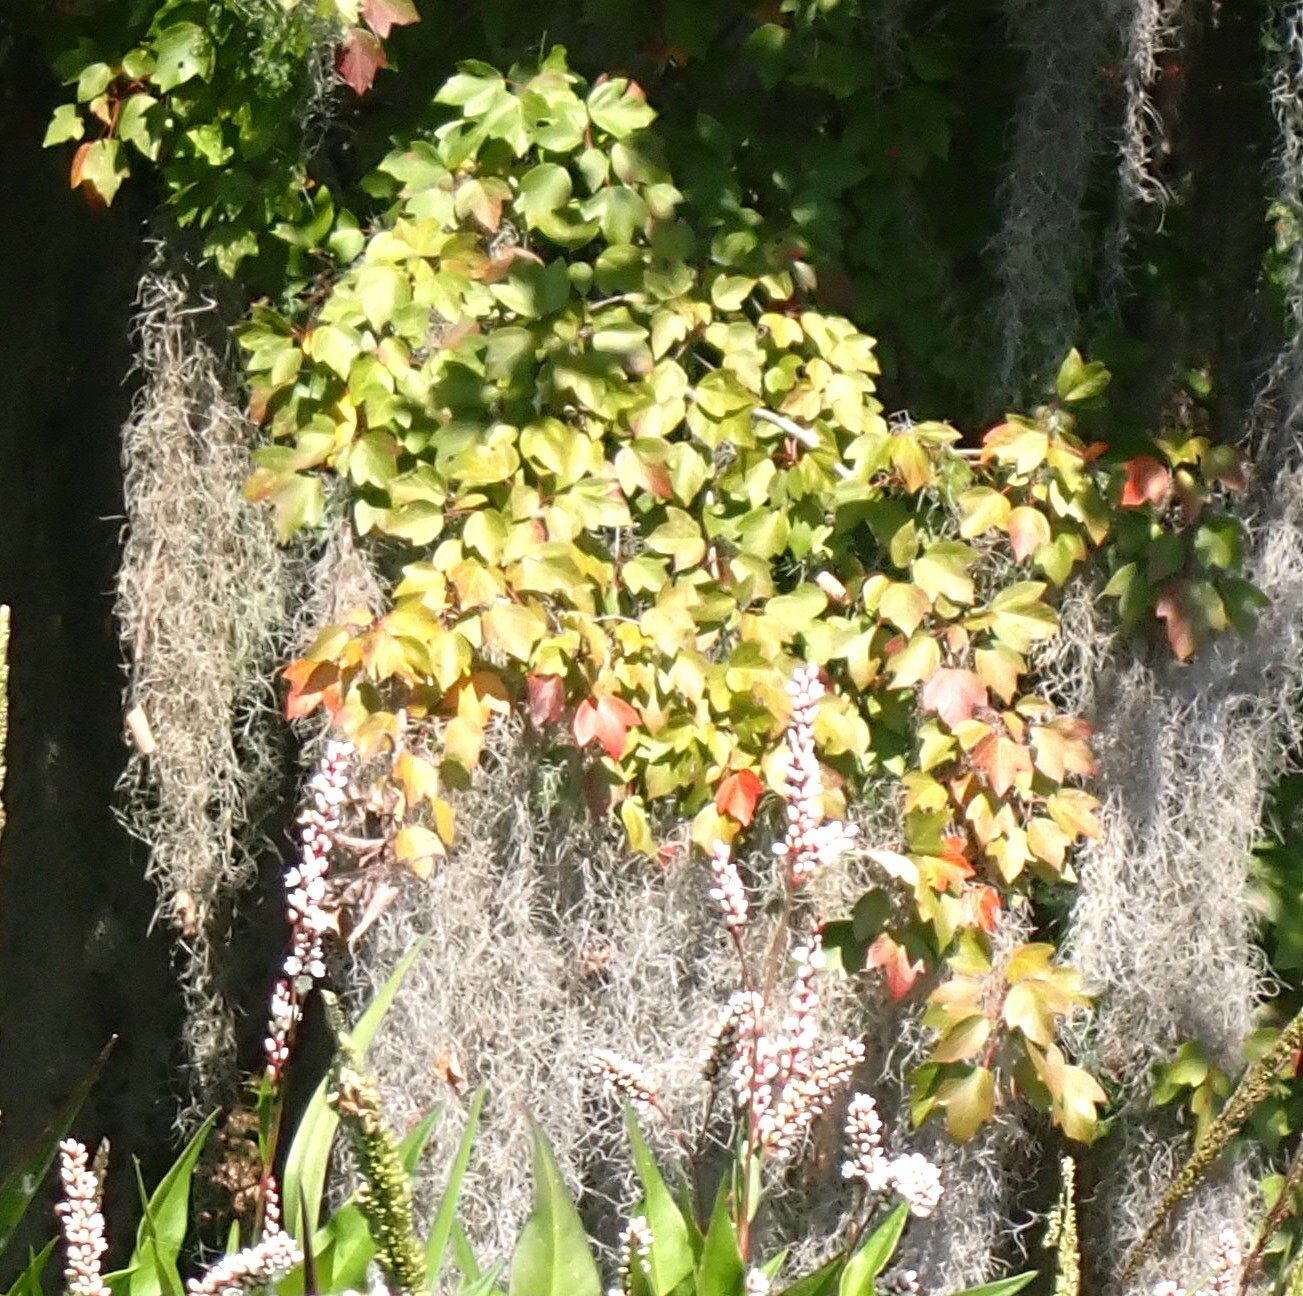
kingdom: Plantae
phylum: Tracheophyta
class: Magnoliopsida
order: Sapindales
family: Sapindaceae
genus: Acer
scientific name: Acer rubrum
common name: Red maple
